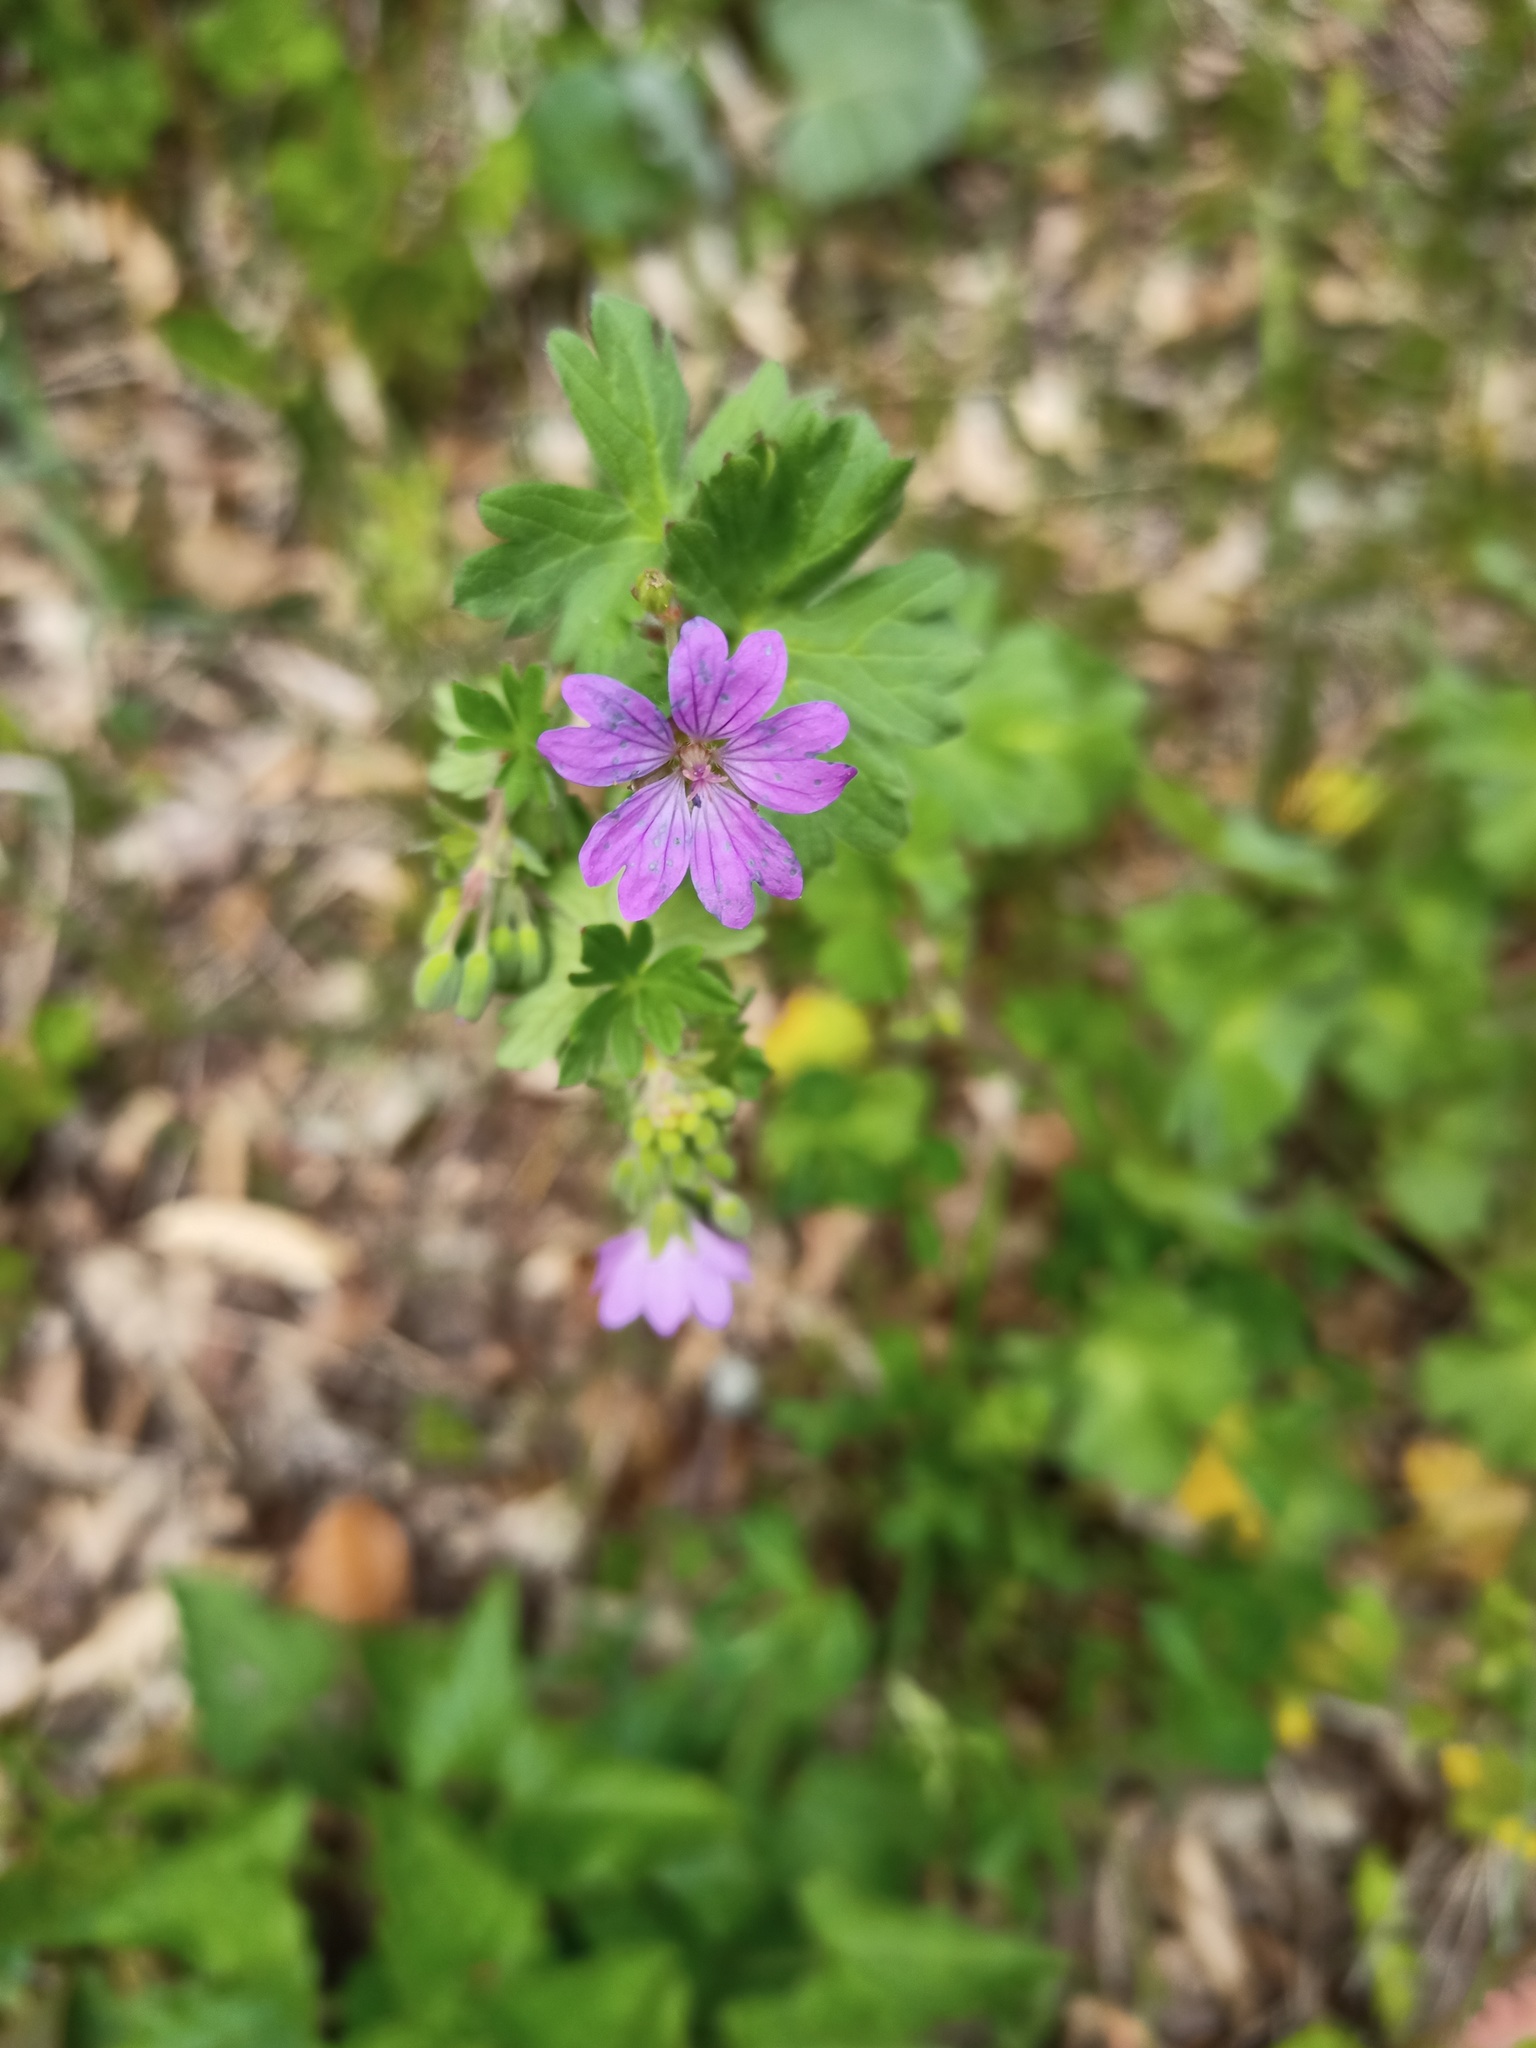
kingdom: Plantae
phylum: Tracheophyta
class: Magnoliopsida
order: Geraniales
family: Geraniaceae
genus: Geranium
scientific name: Geranium pyrenaicum
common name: Hedgerow crane's-bill
